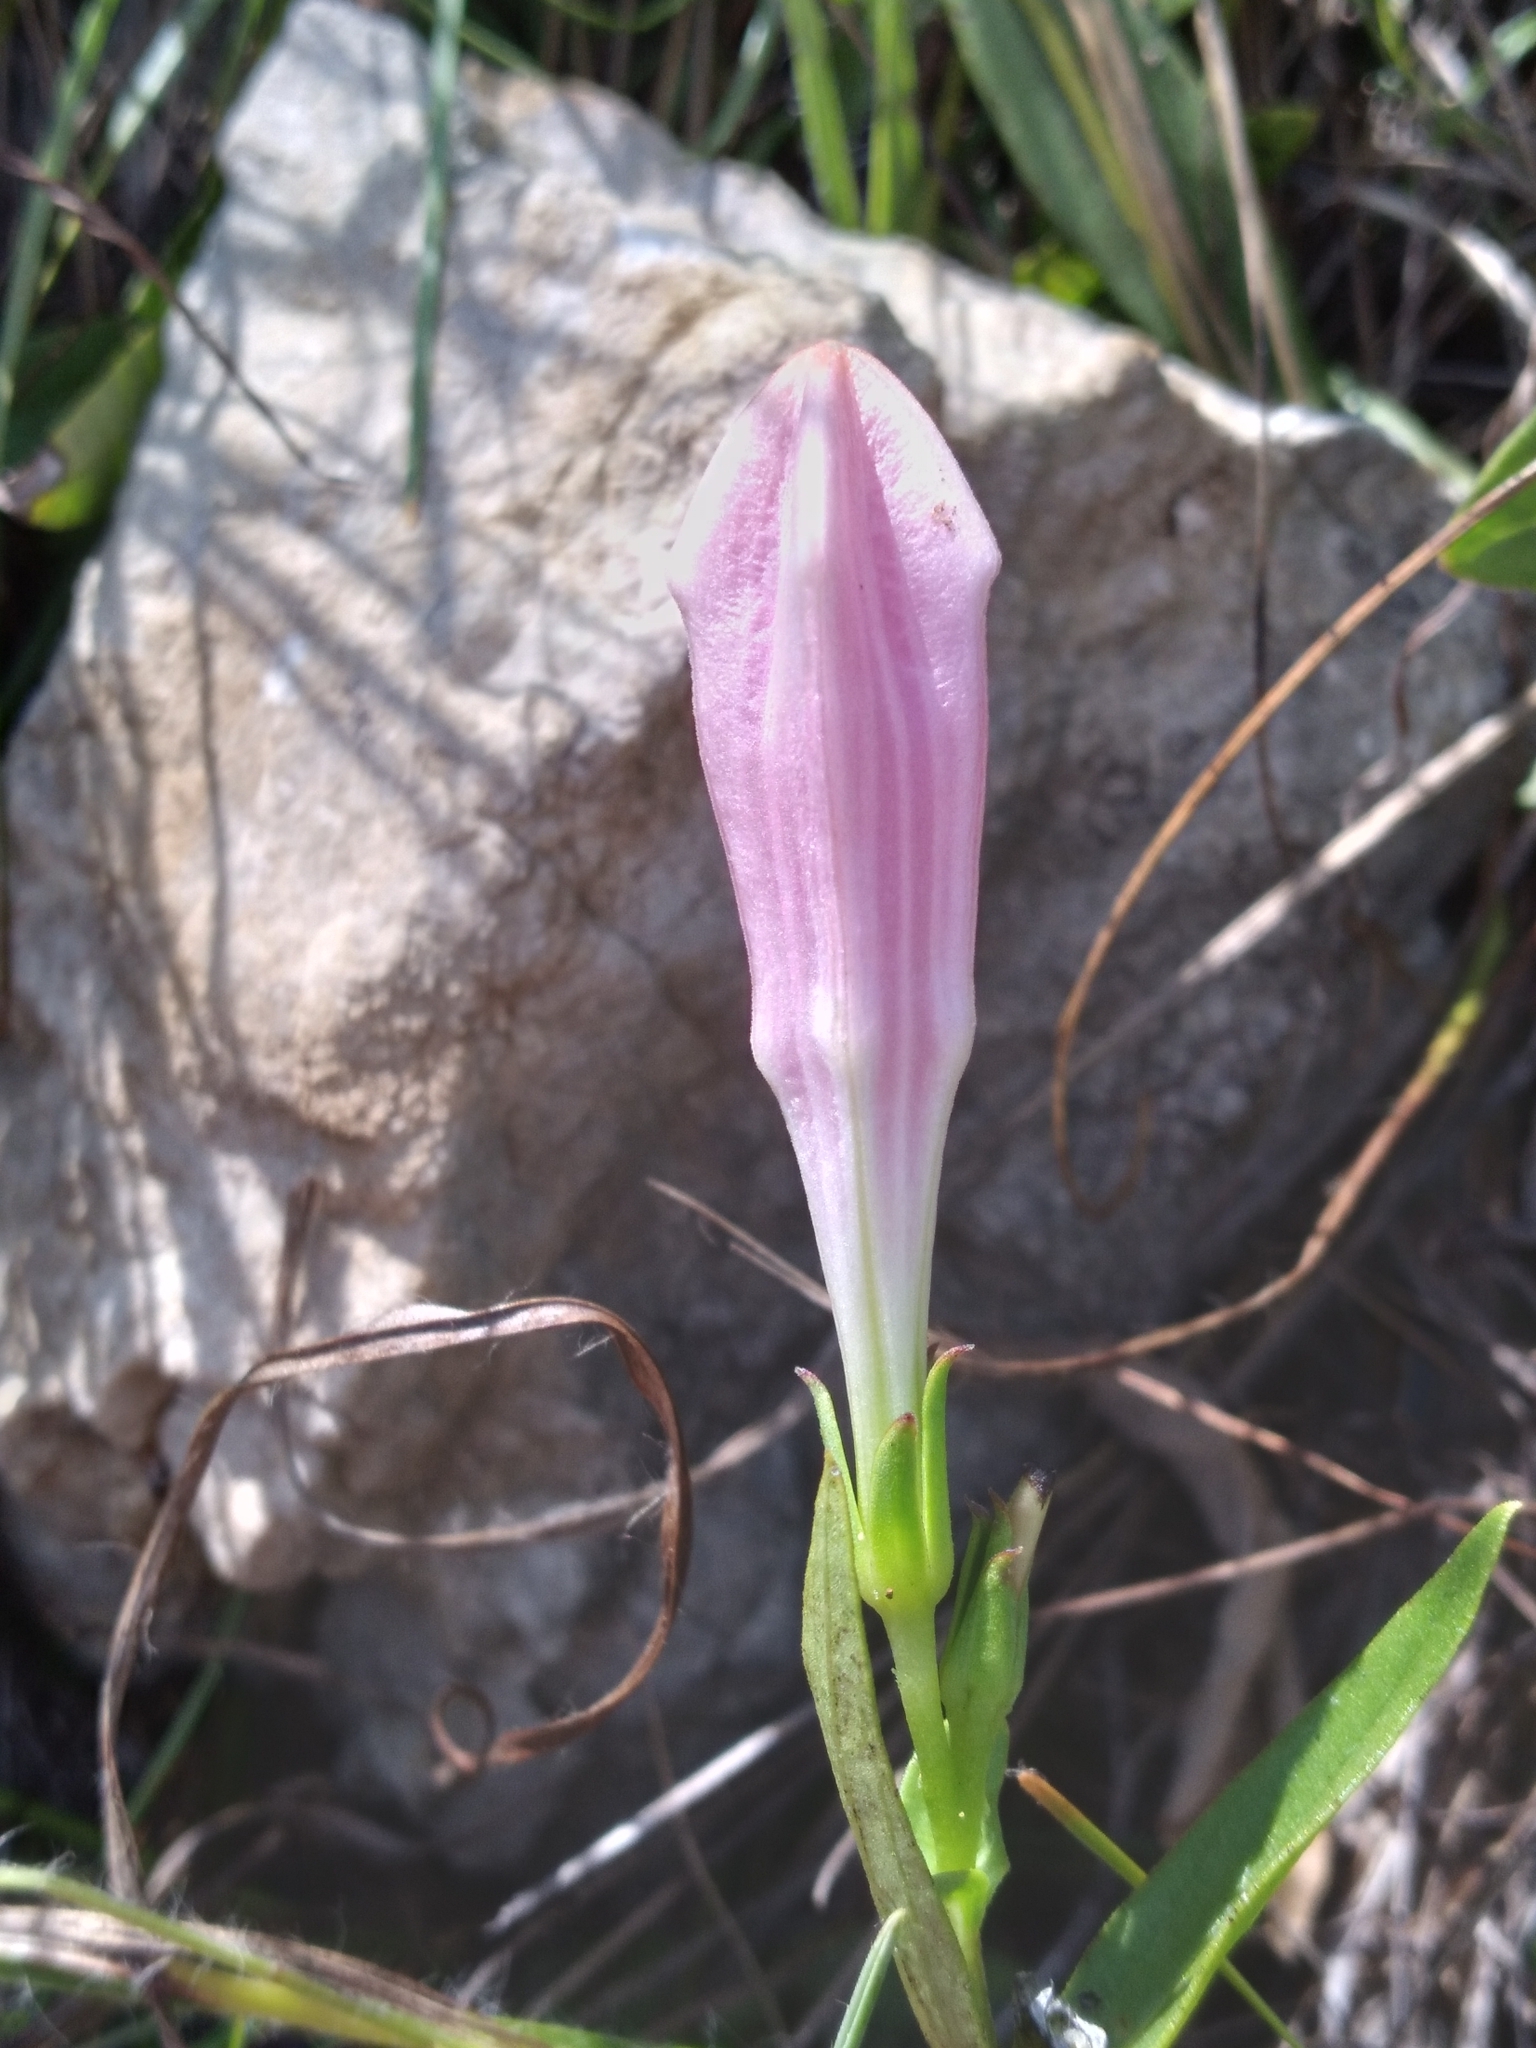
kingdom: Plantae
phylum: Tracheophyta
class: Magnoliopsida
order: Gentianales
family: Loganiaceae
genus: Spigelia
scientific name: Spigelia alabamensis
